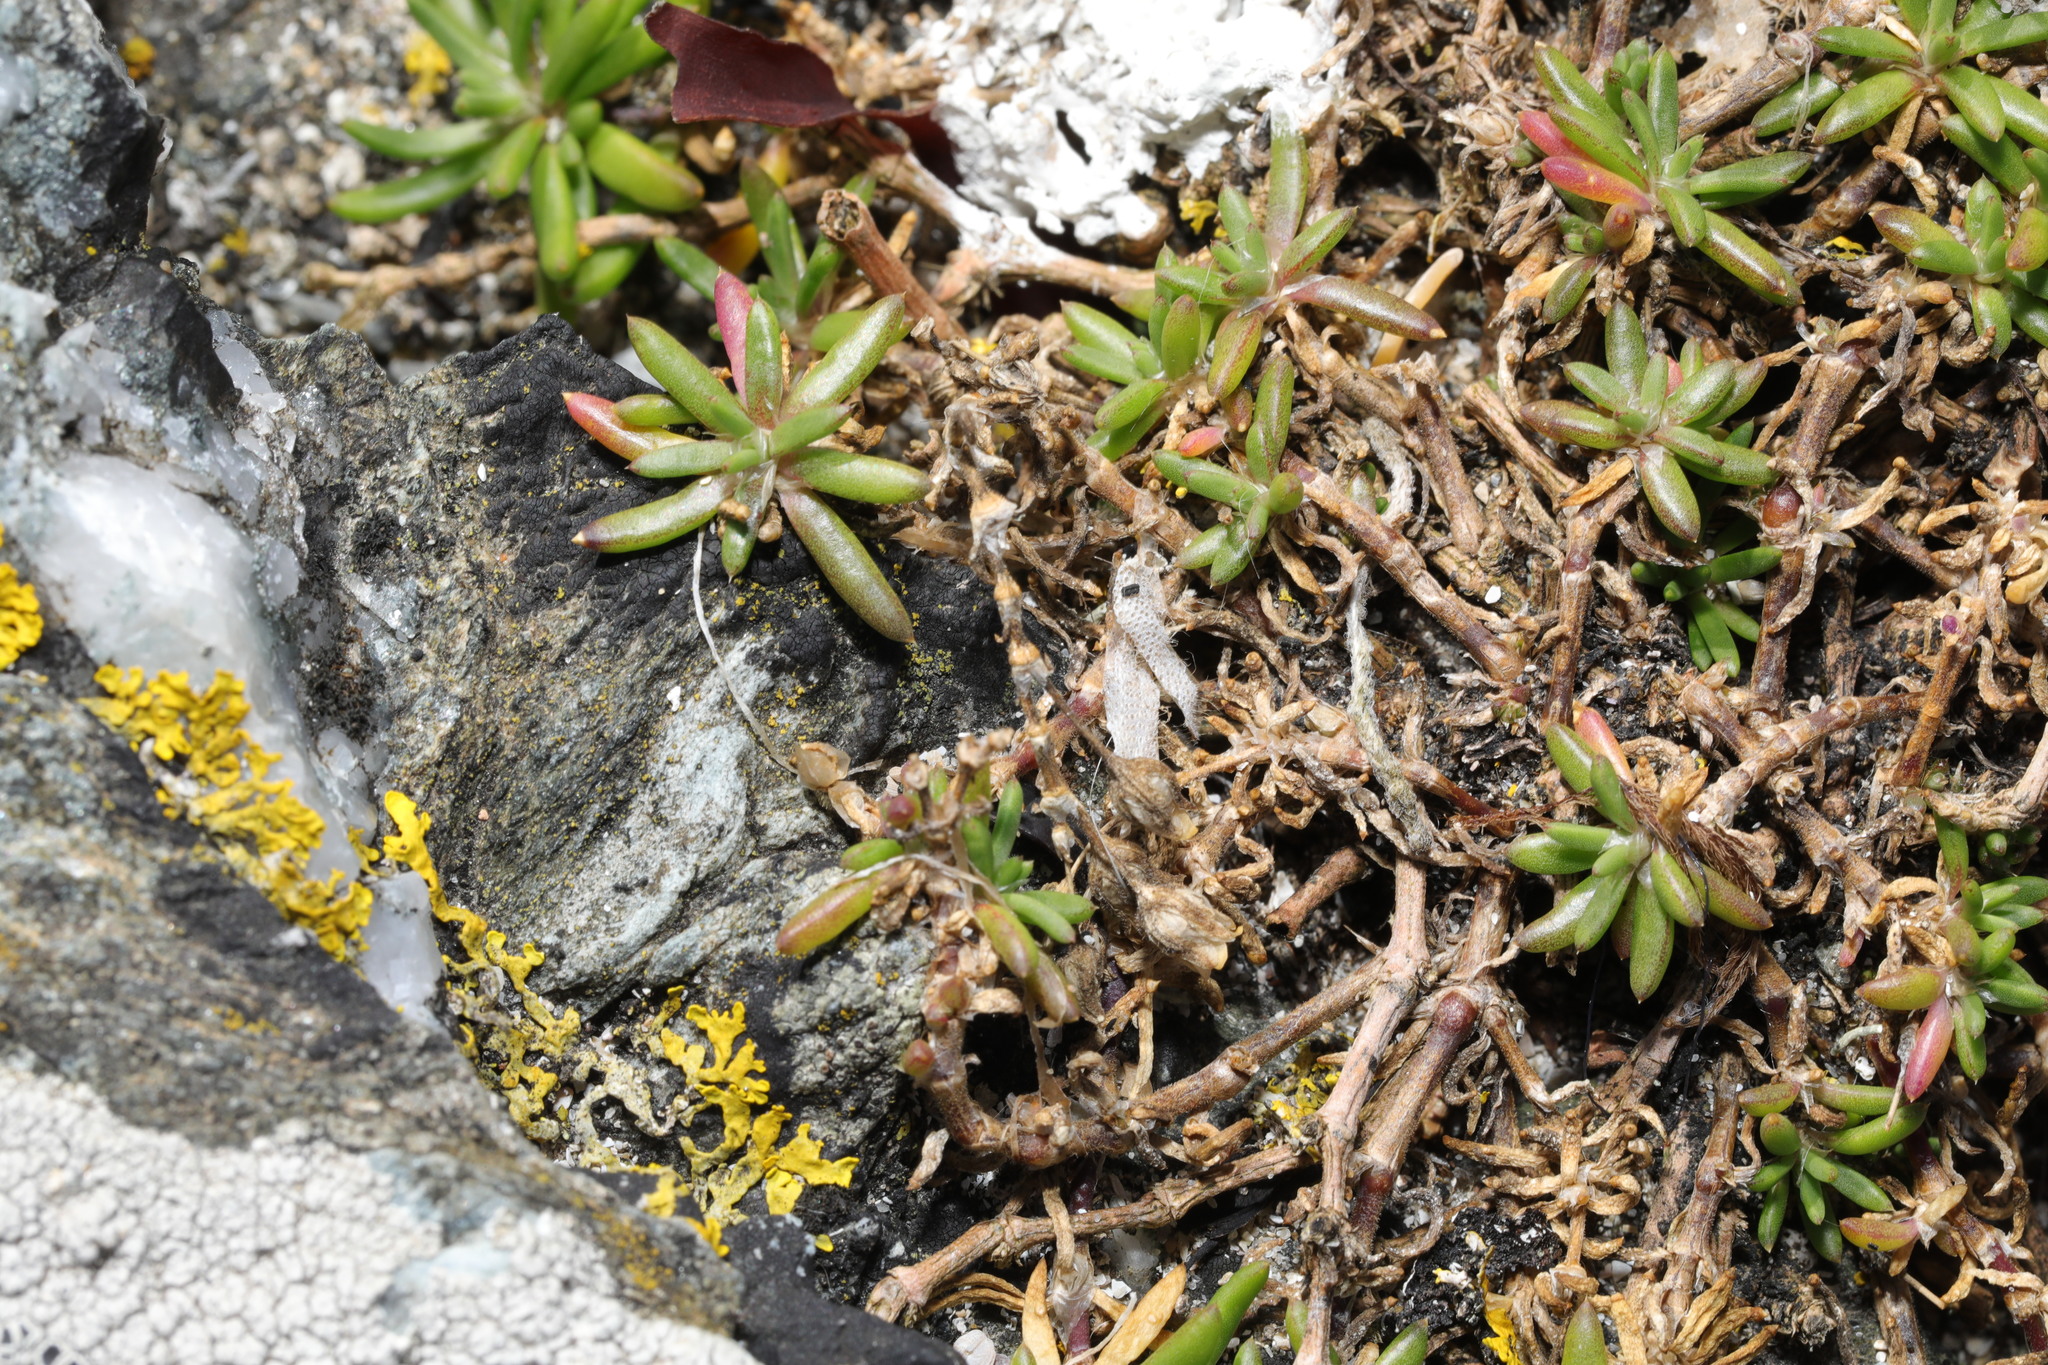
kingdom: Plantae
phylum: Tracheophyta
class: Magnoliopsida
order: Caryophyllales
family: Caryophyllaceae
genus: Spergularia
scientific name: Spergularia media
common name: Greater sea-spurrey
